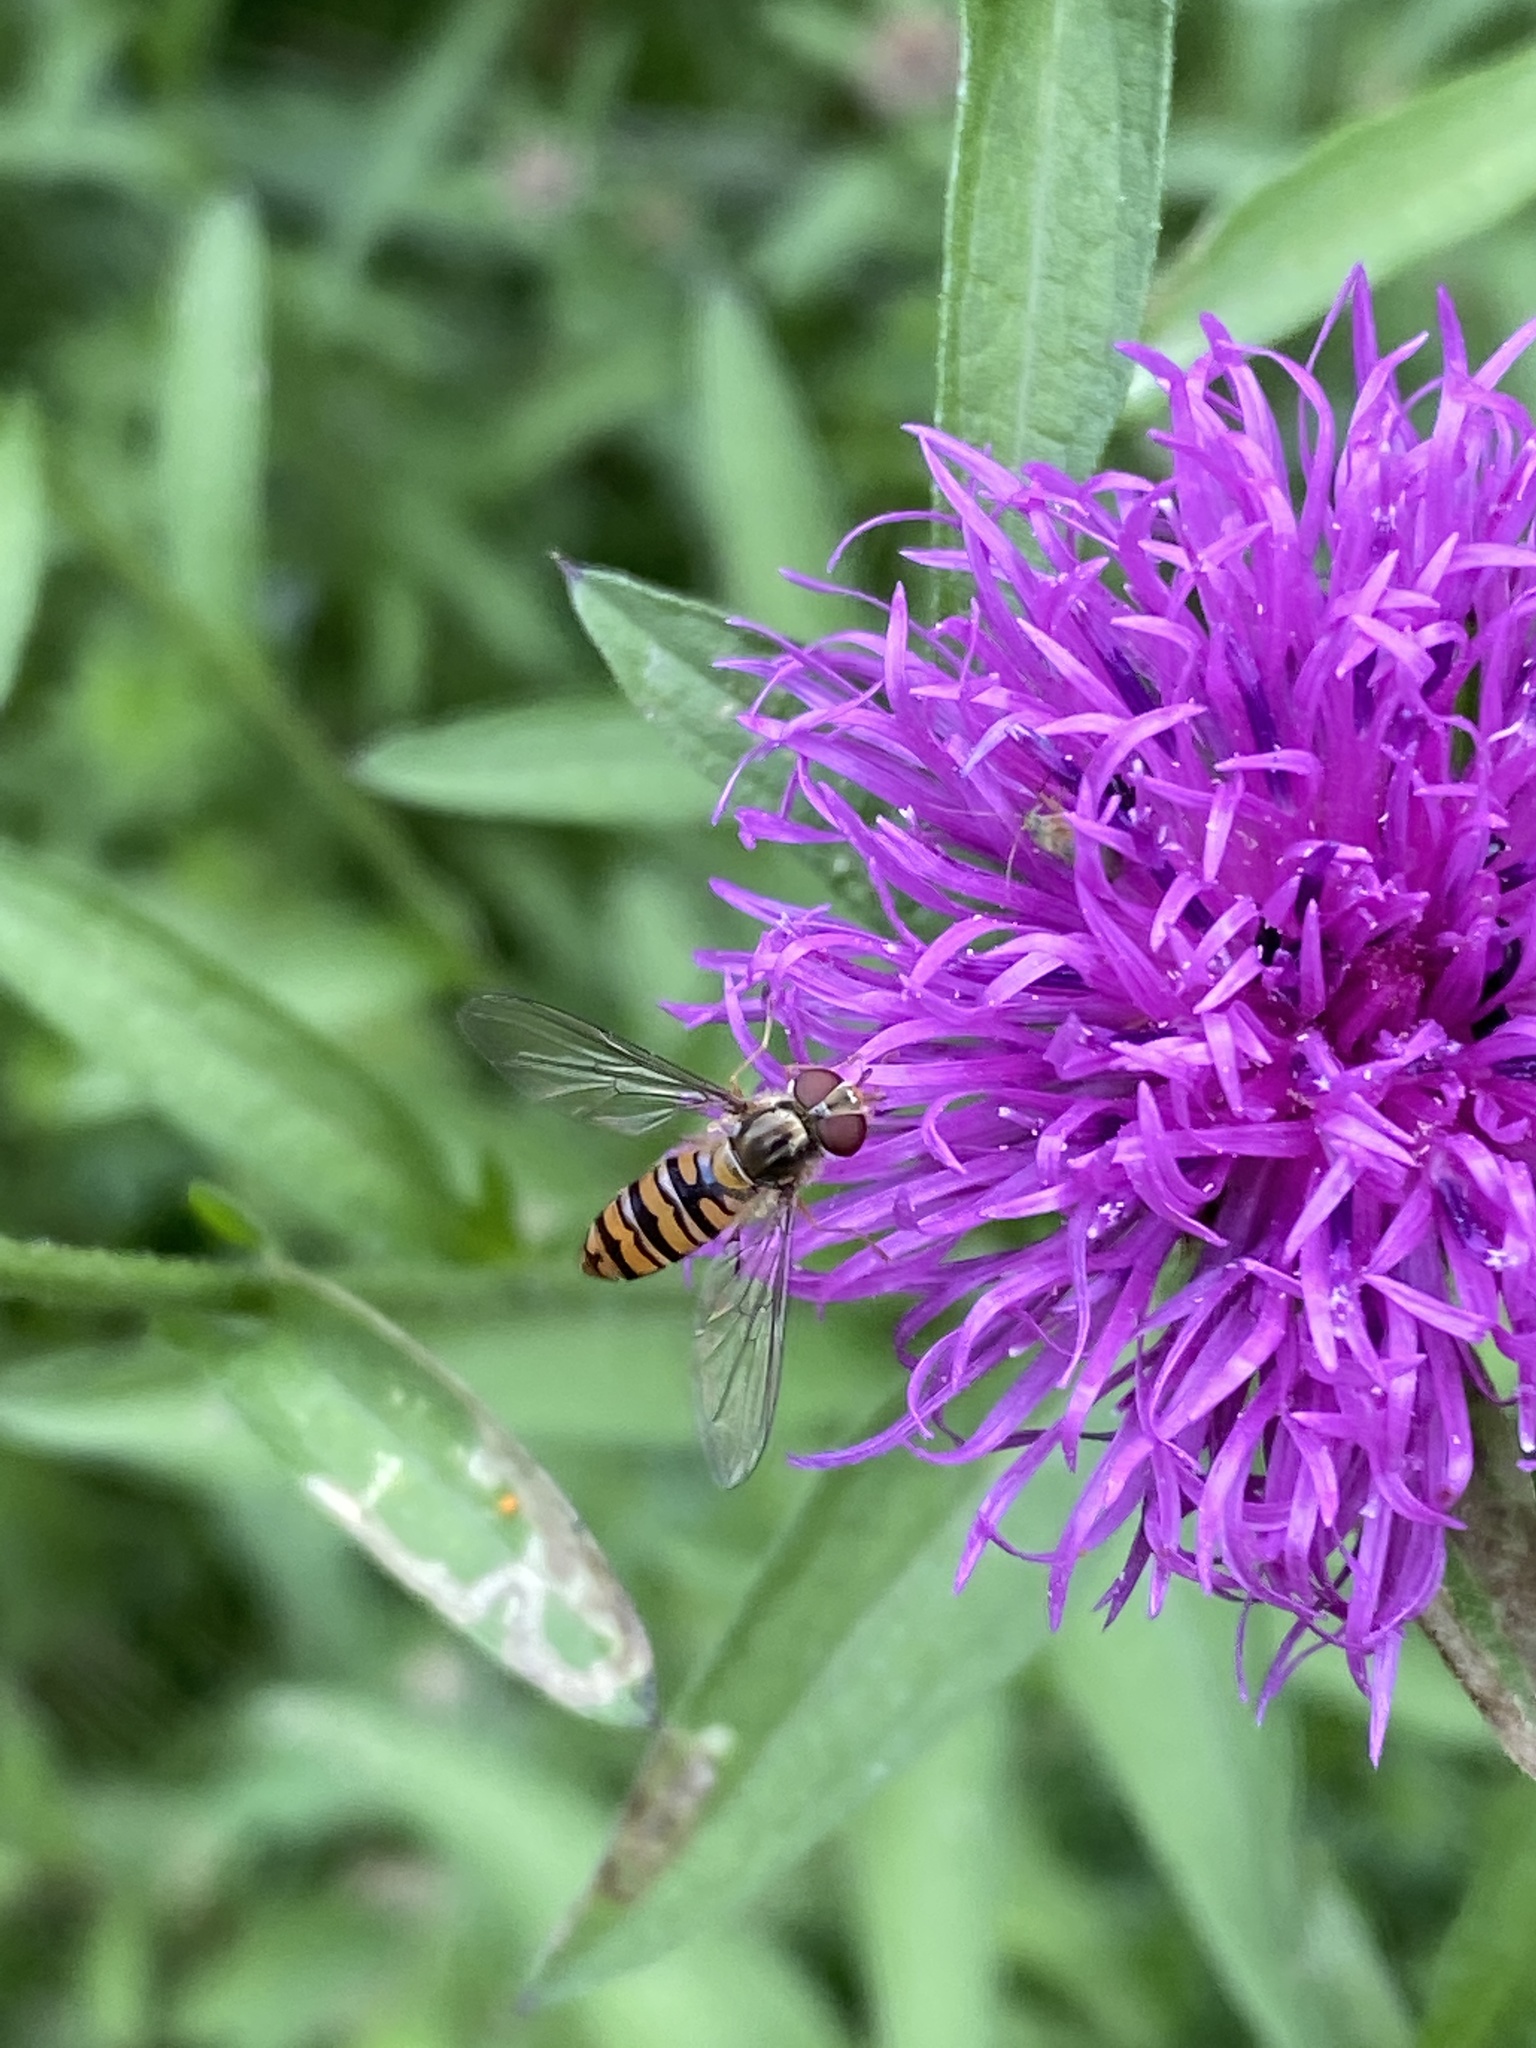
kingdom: Animalia
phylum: Arthropoda
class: Insecta
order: Diptera
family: Syrphidae
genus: Episyrphus
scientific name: Episyrphus balteatus
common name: Marmalade hoverfly
